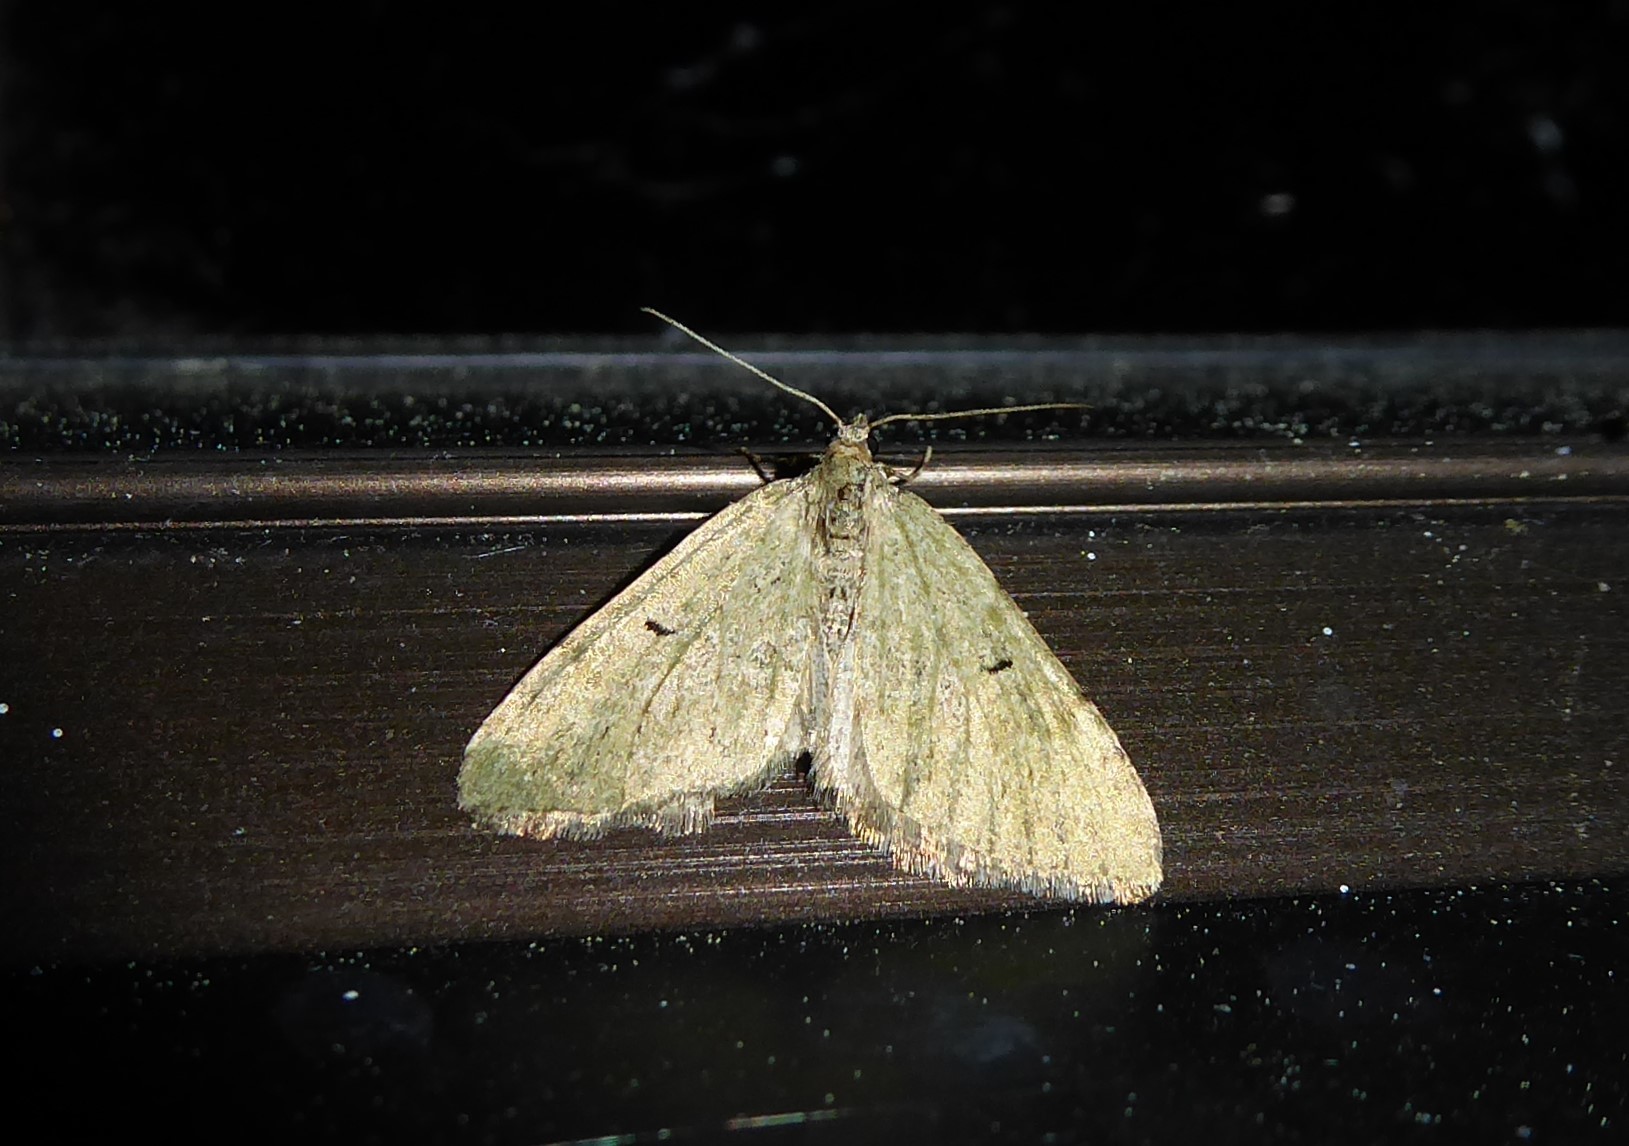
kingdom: Animalia
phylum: Arthropoda
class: Insecta
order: Lepidoptera
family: Geometridae
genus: Epyaxa
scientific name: Epyaxa rosearia
